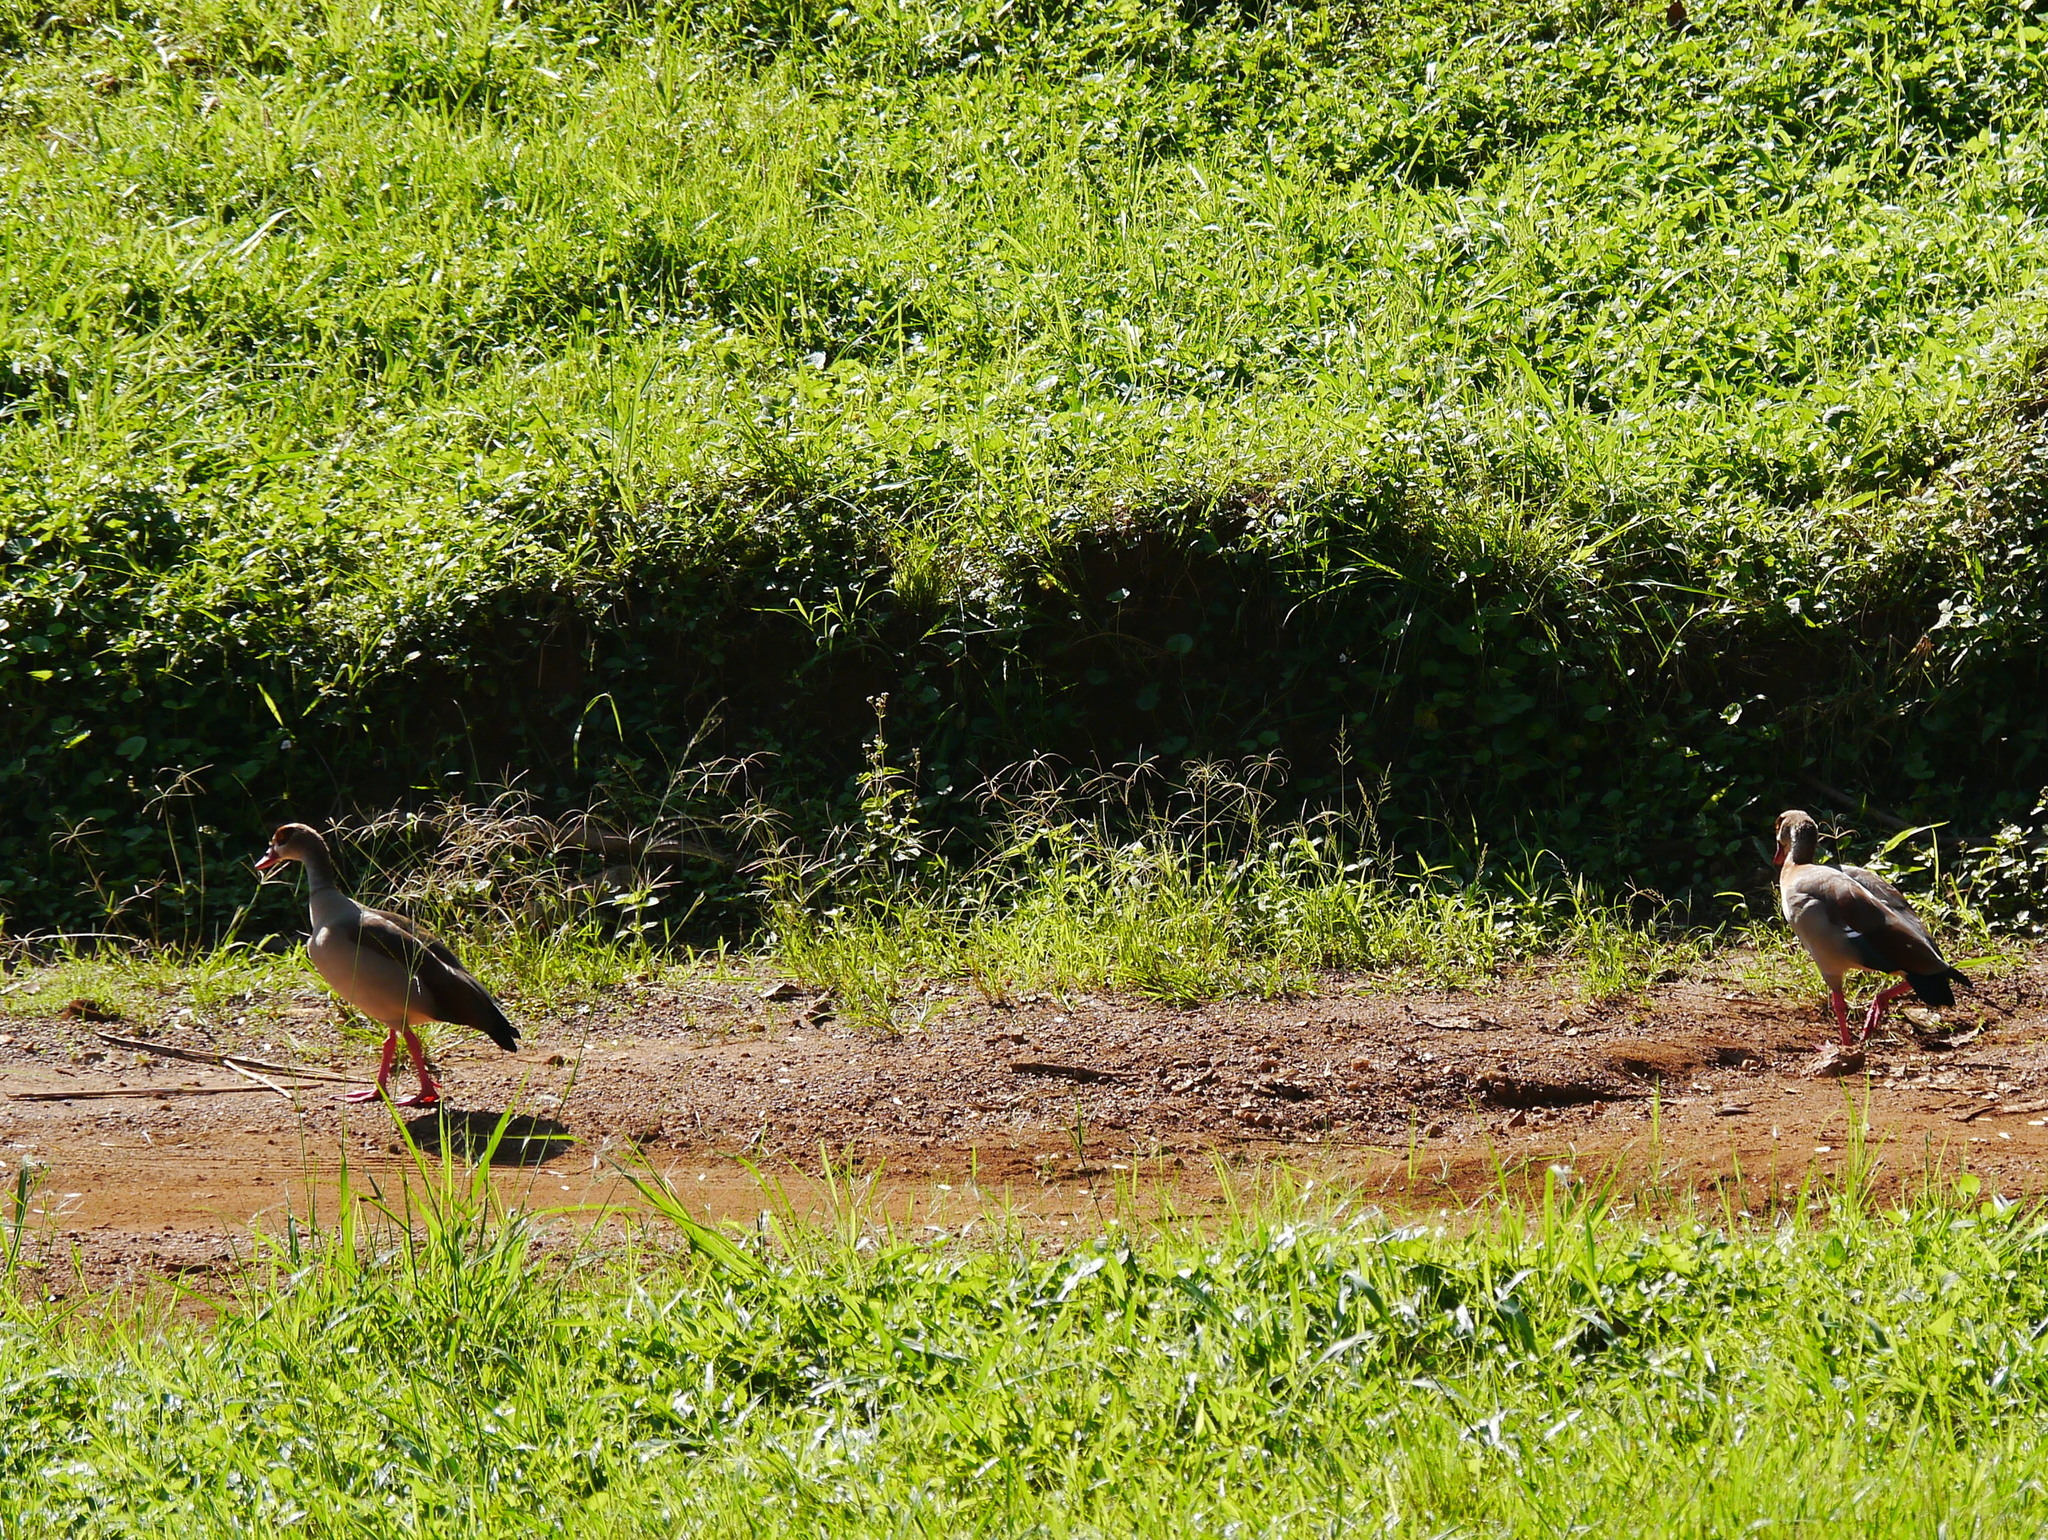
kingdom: Animalia
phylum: Chordata
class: Aves
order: Anseriformes
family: Anatidae
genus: Alopochen
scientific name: Alopochen aegyptiaca
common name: Egyptian goose
